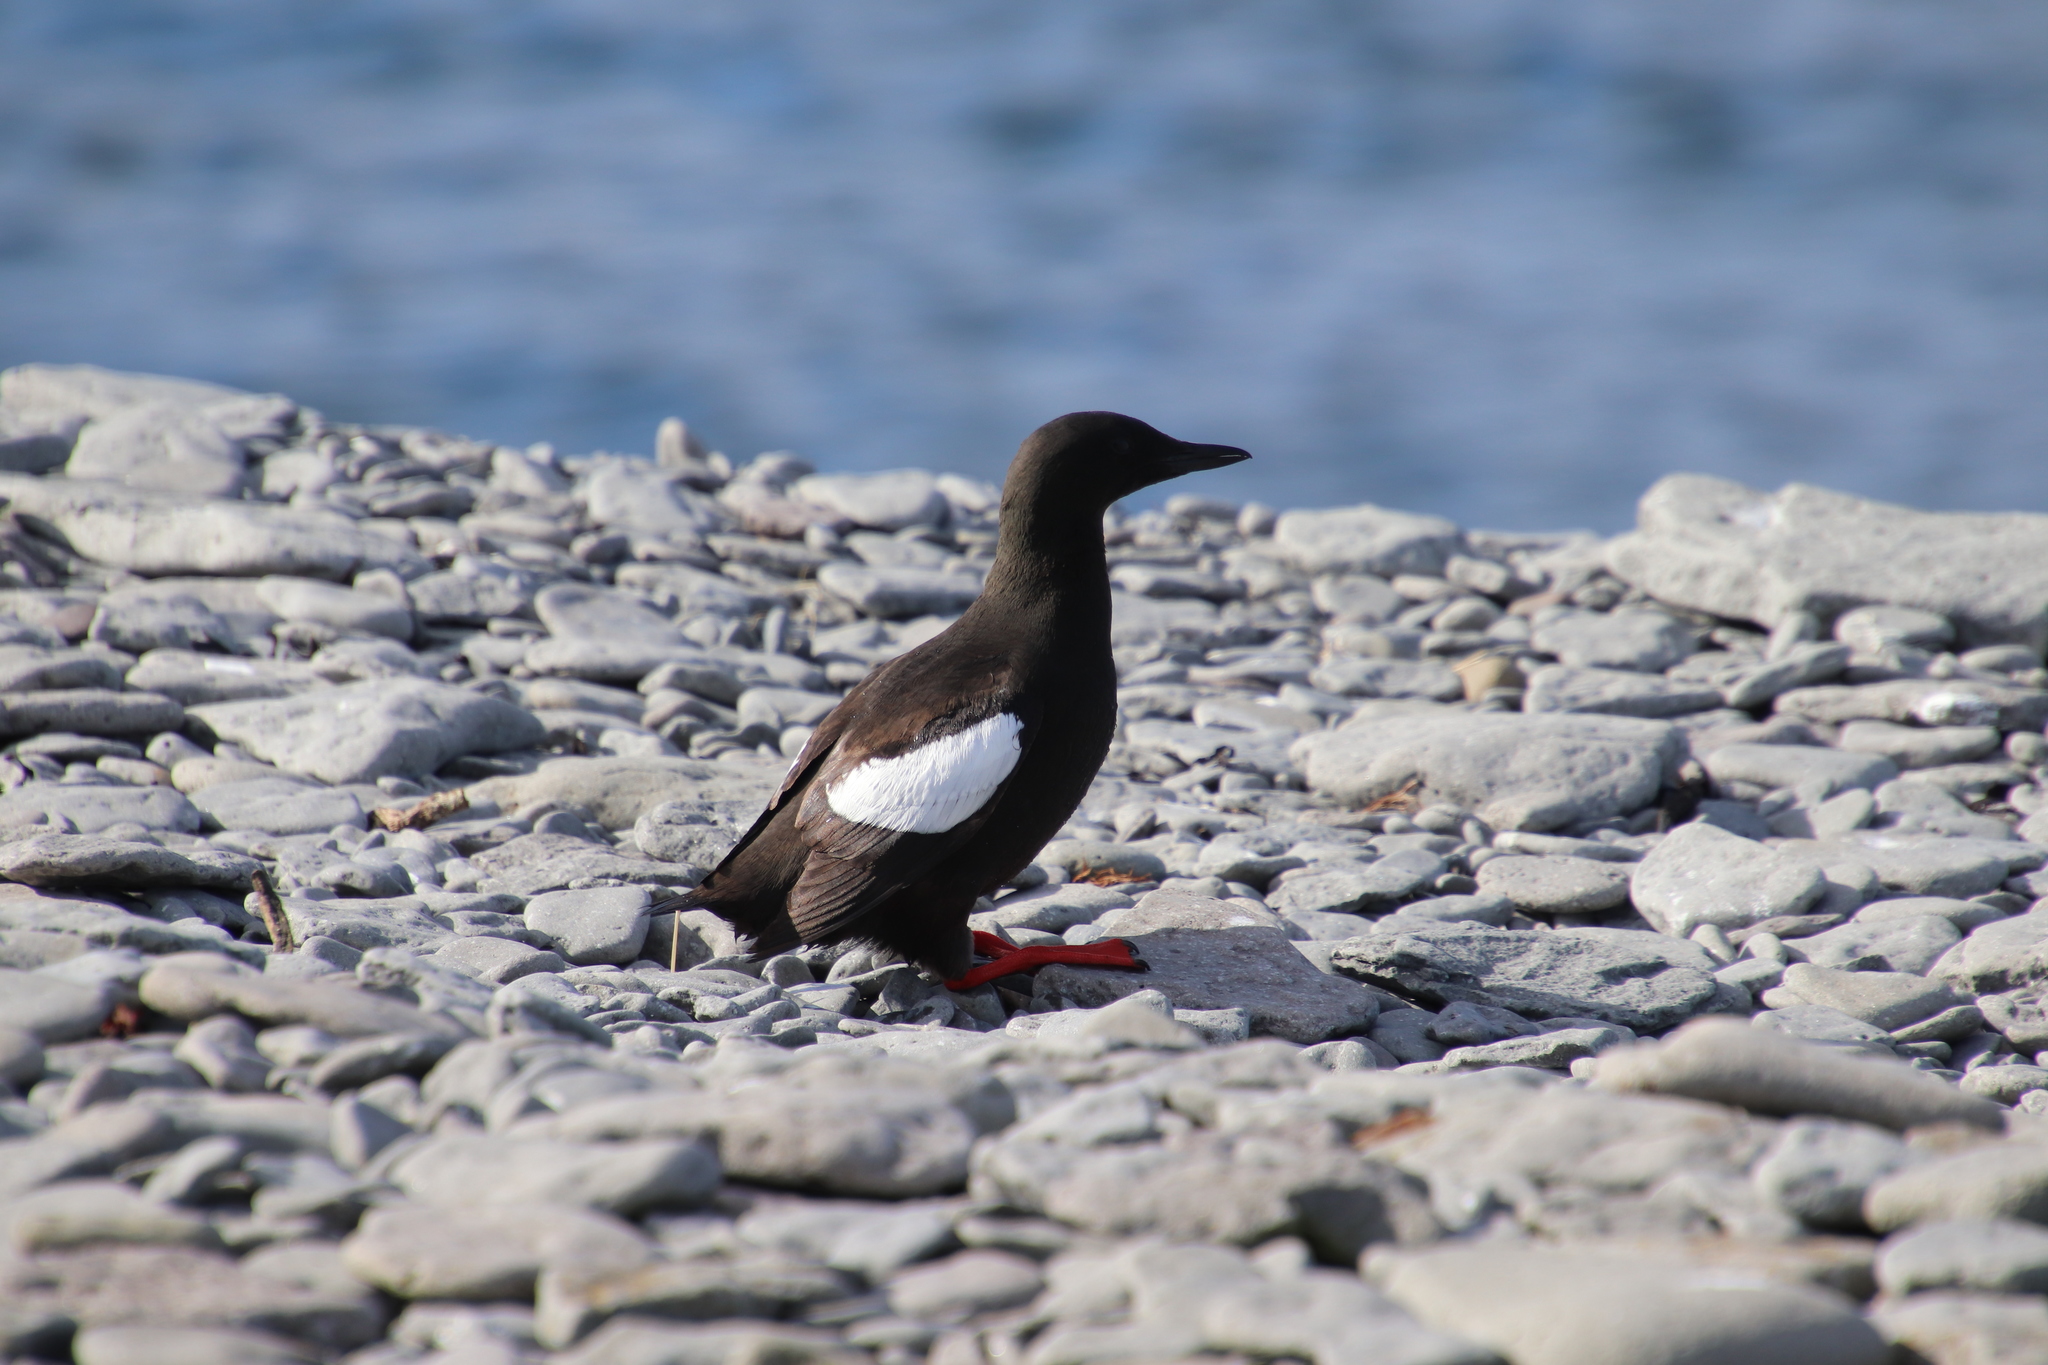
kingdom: Animalia
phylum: Chordata
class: Aves
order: Charadriiformes
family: Alcidae
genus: Cepphus
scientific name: Cepphus grylle
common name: Black guillemot
